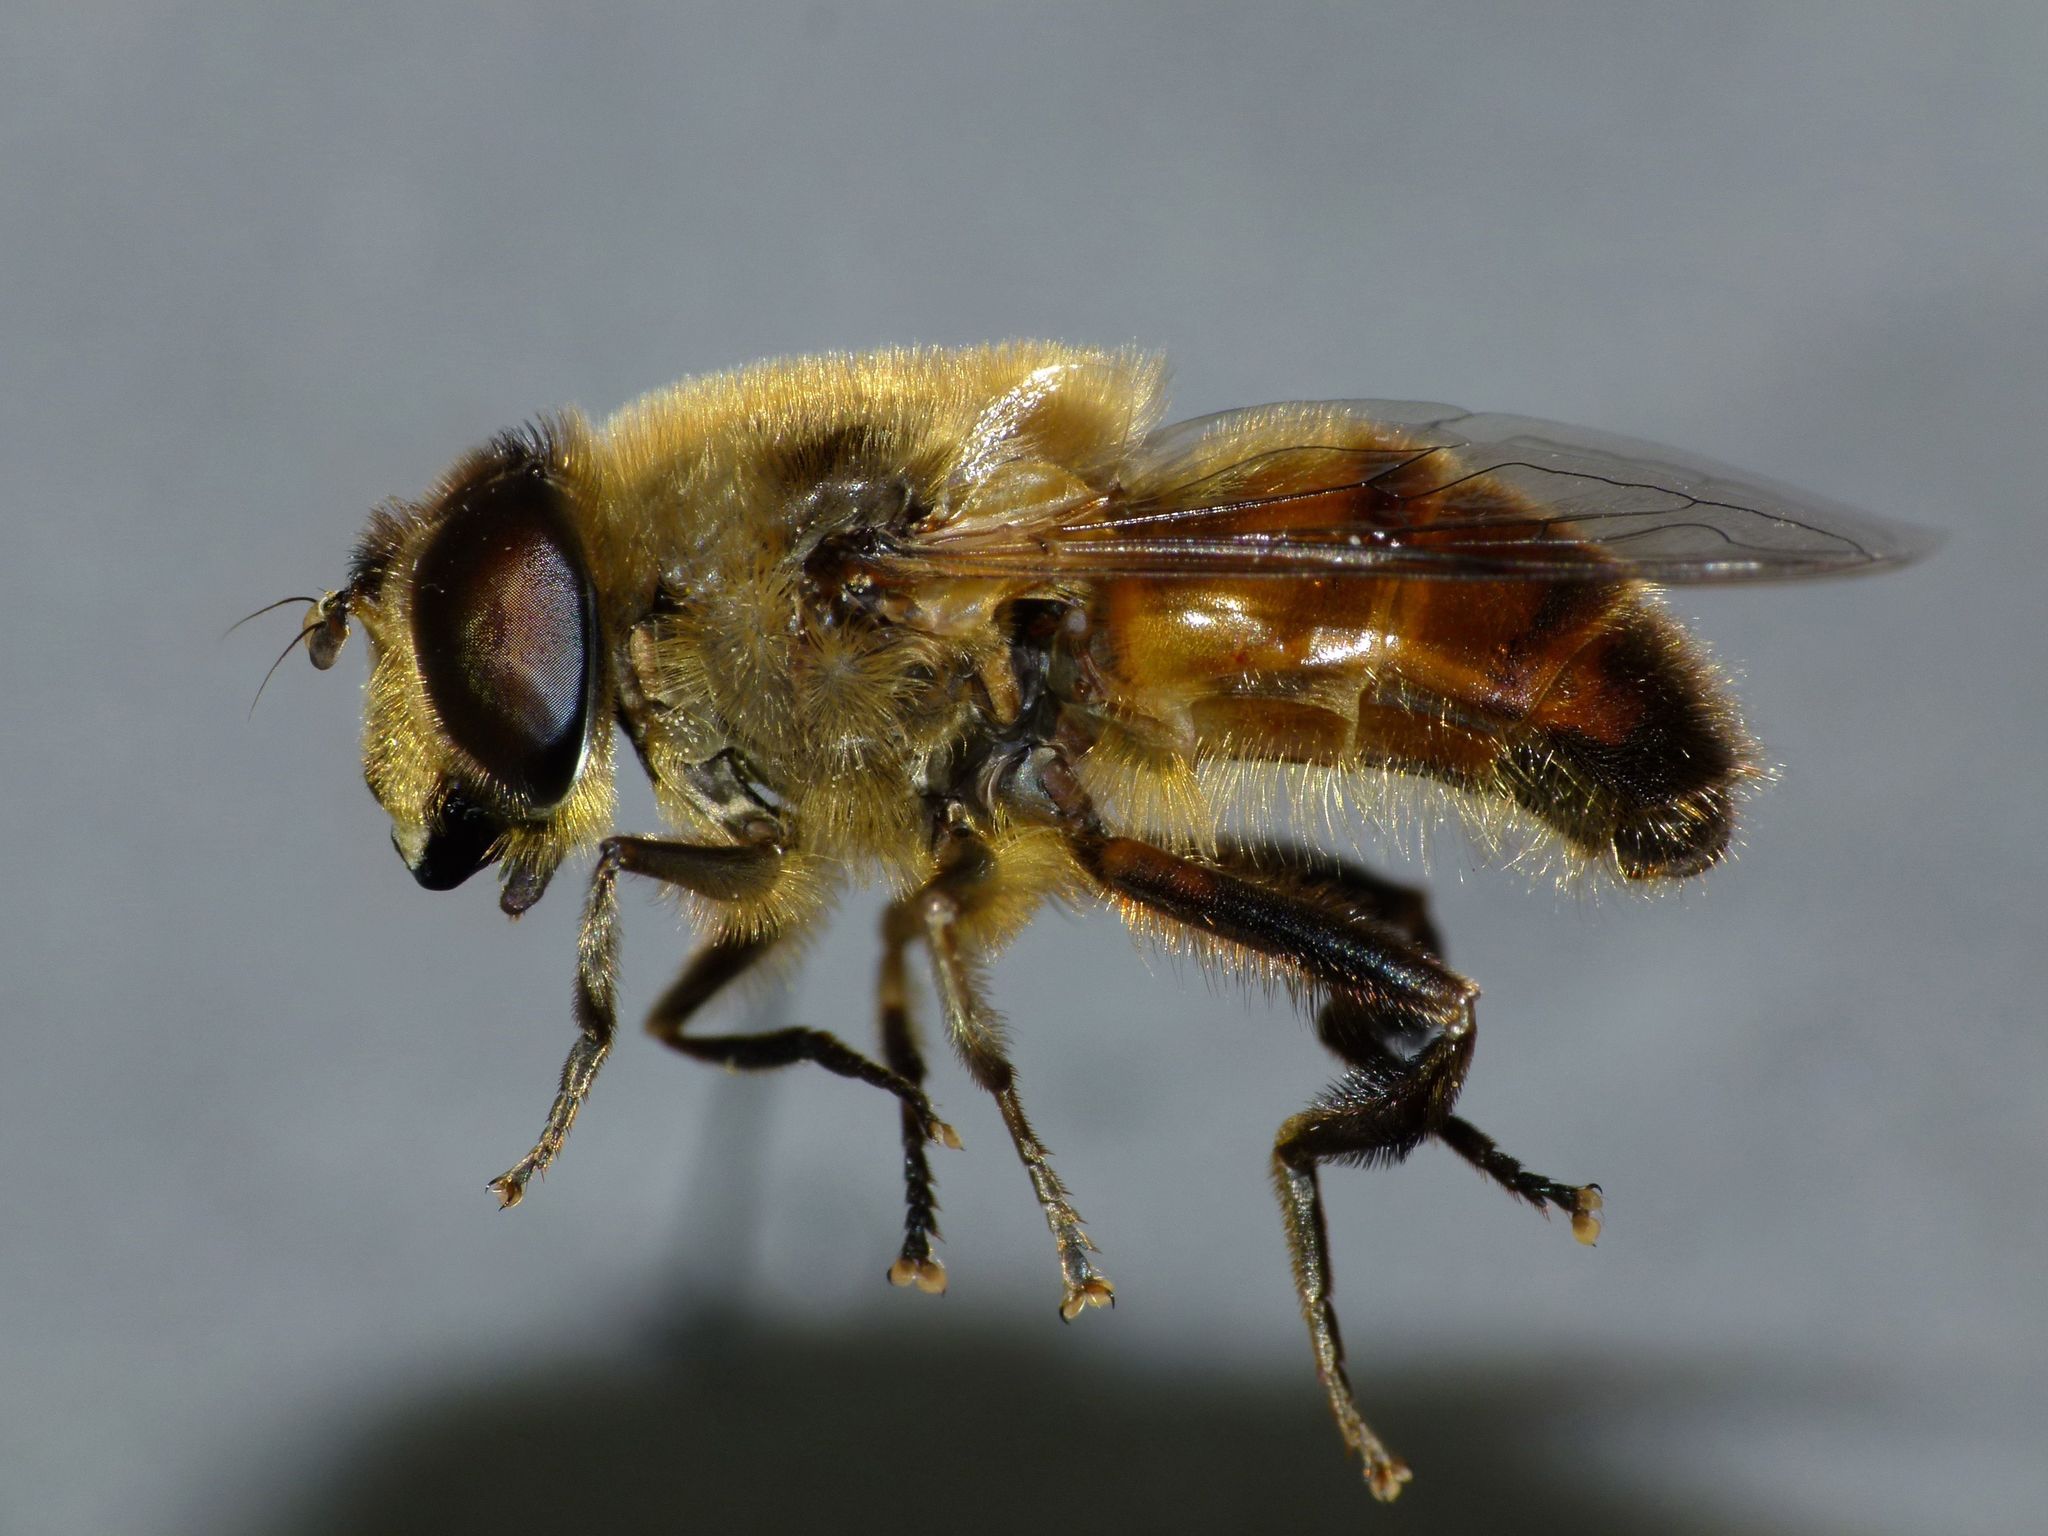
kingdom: Animalia
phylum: Arthropoda
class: Insecta
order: Diptera
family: Syrphidae
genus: Eristalis
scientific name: Eristalis tenax
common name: Drone fly
